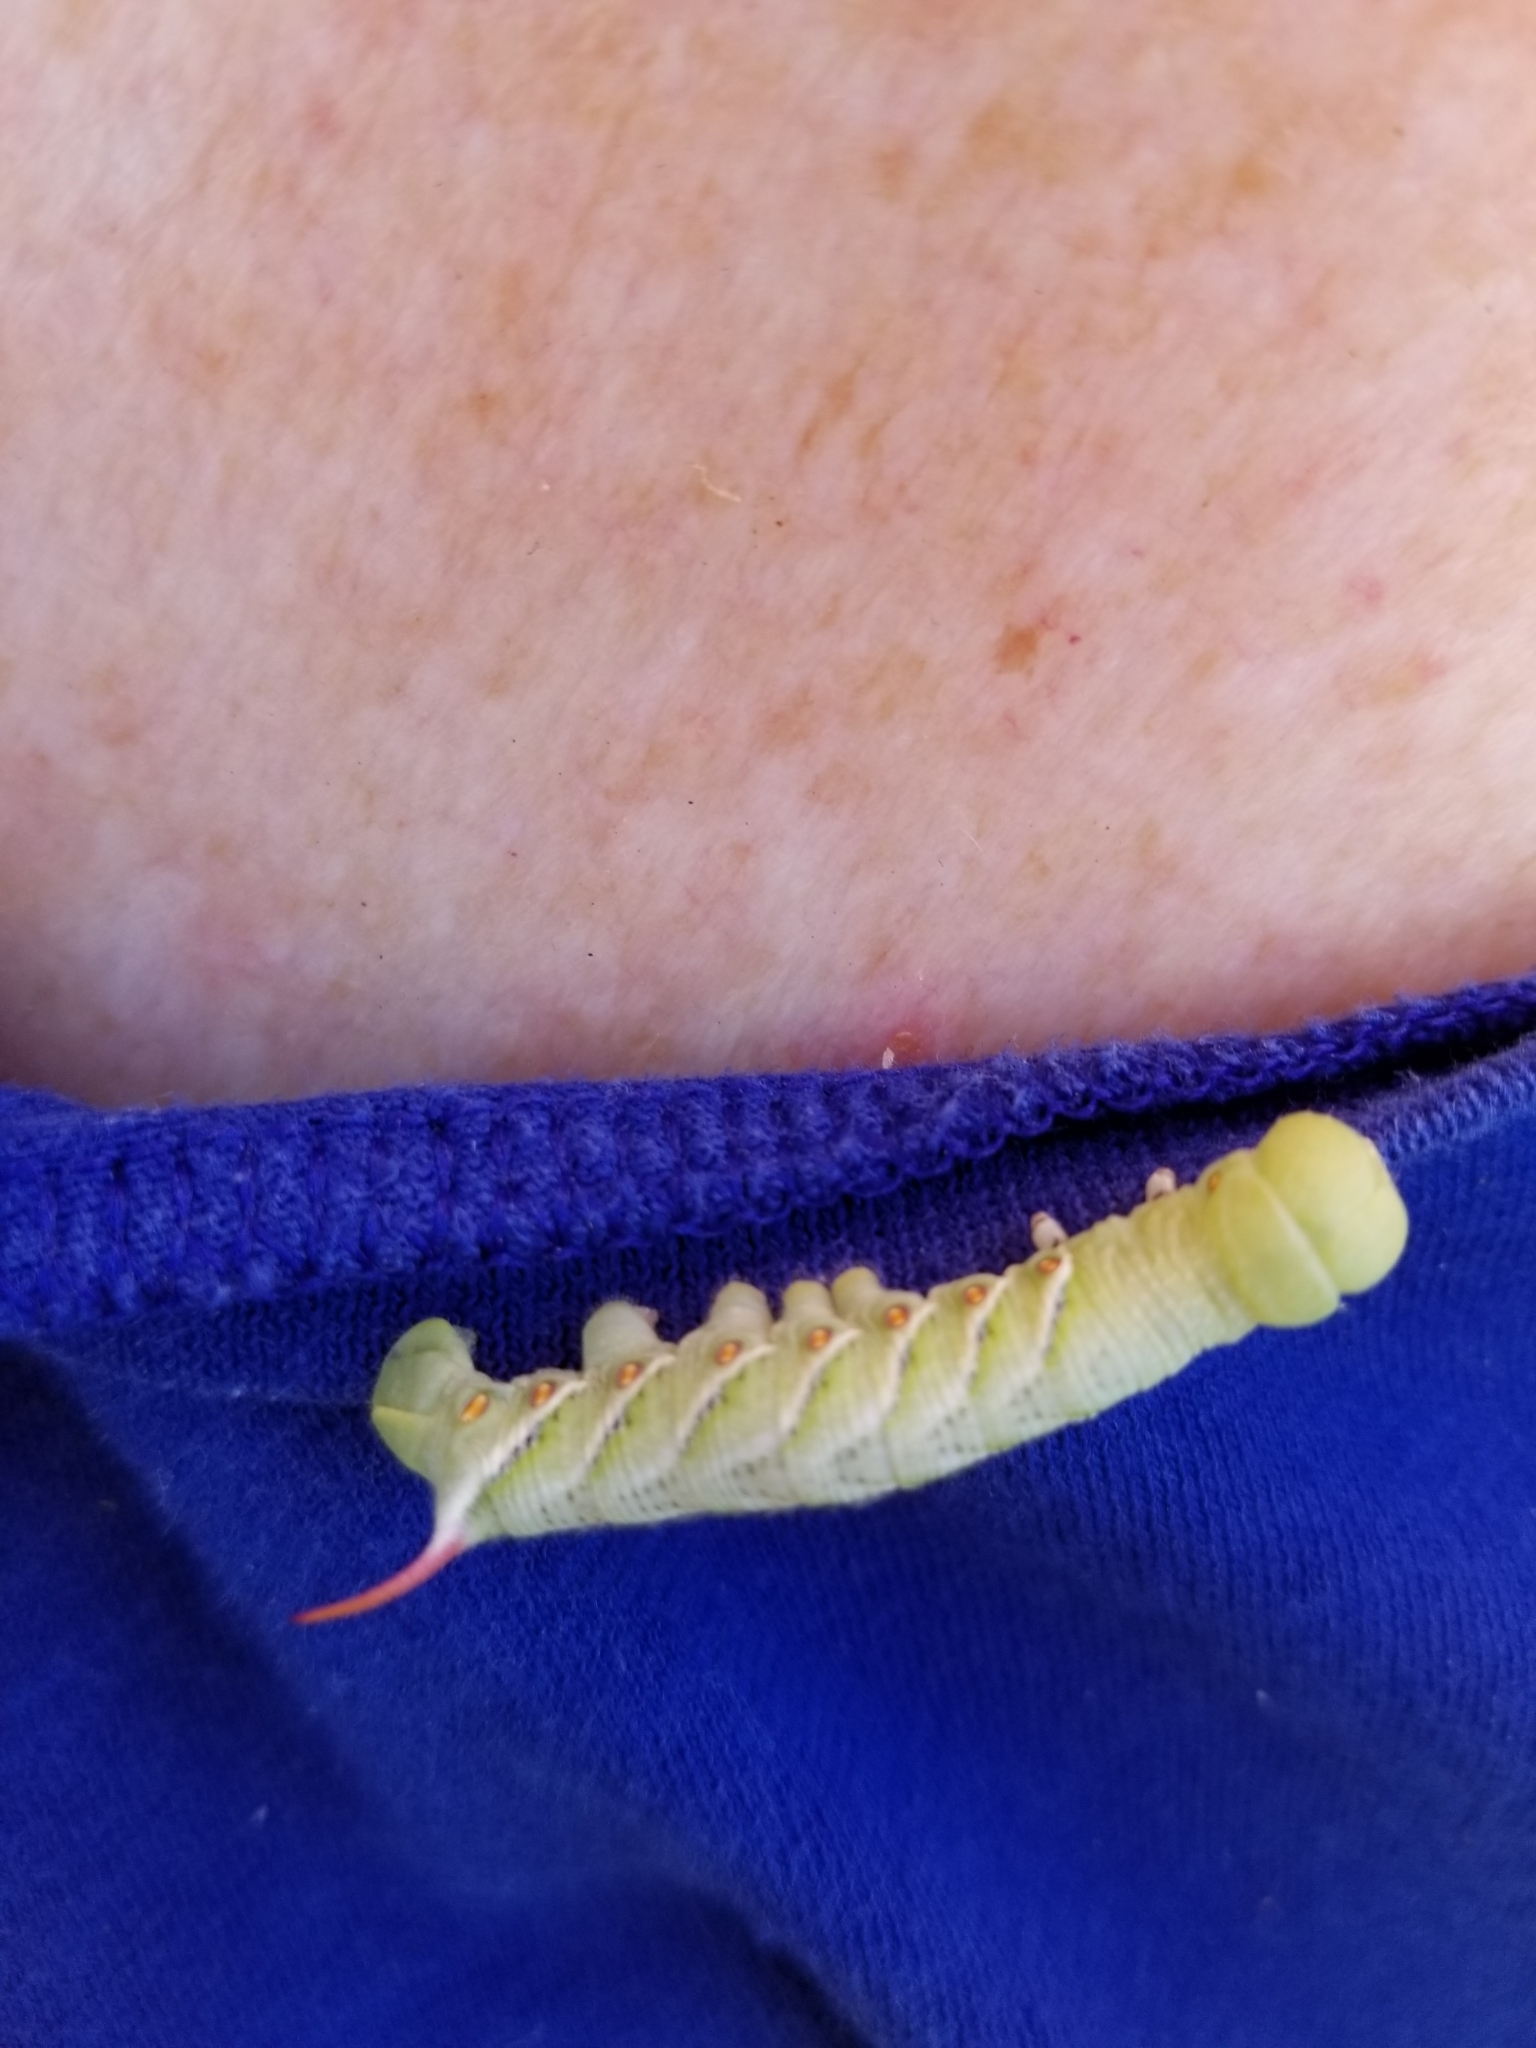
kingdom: Animalia
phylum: Arthropoda
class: Insecta
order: Lepidoptera
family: Sphingidae
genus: Manduca
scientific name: Manduca sexta
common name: Carolina sphinx
